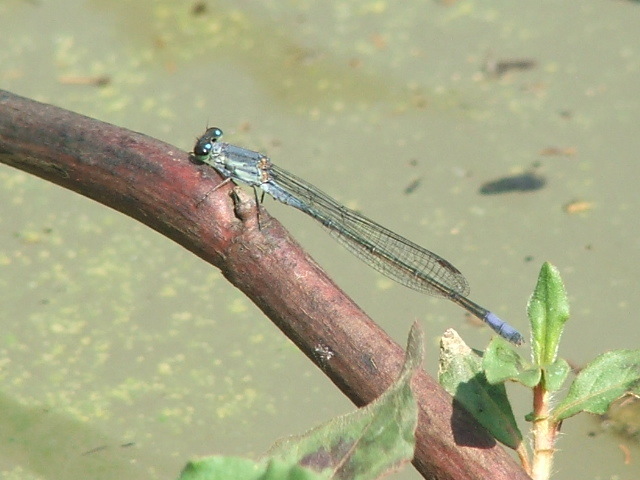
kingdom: Animalia
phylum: Arthropoda
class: Insecta
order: Odonata
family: Coenagrionidae
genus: Pseudagrion
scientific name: Pseudagrion salisburyense
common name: Slate sprite
